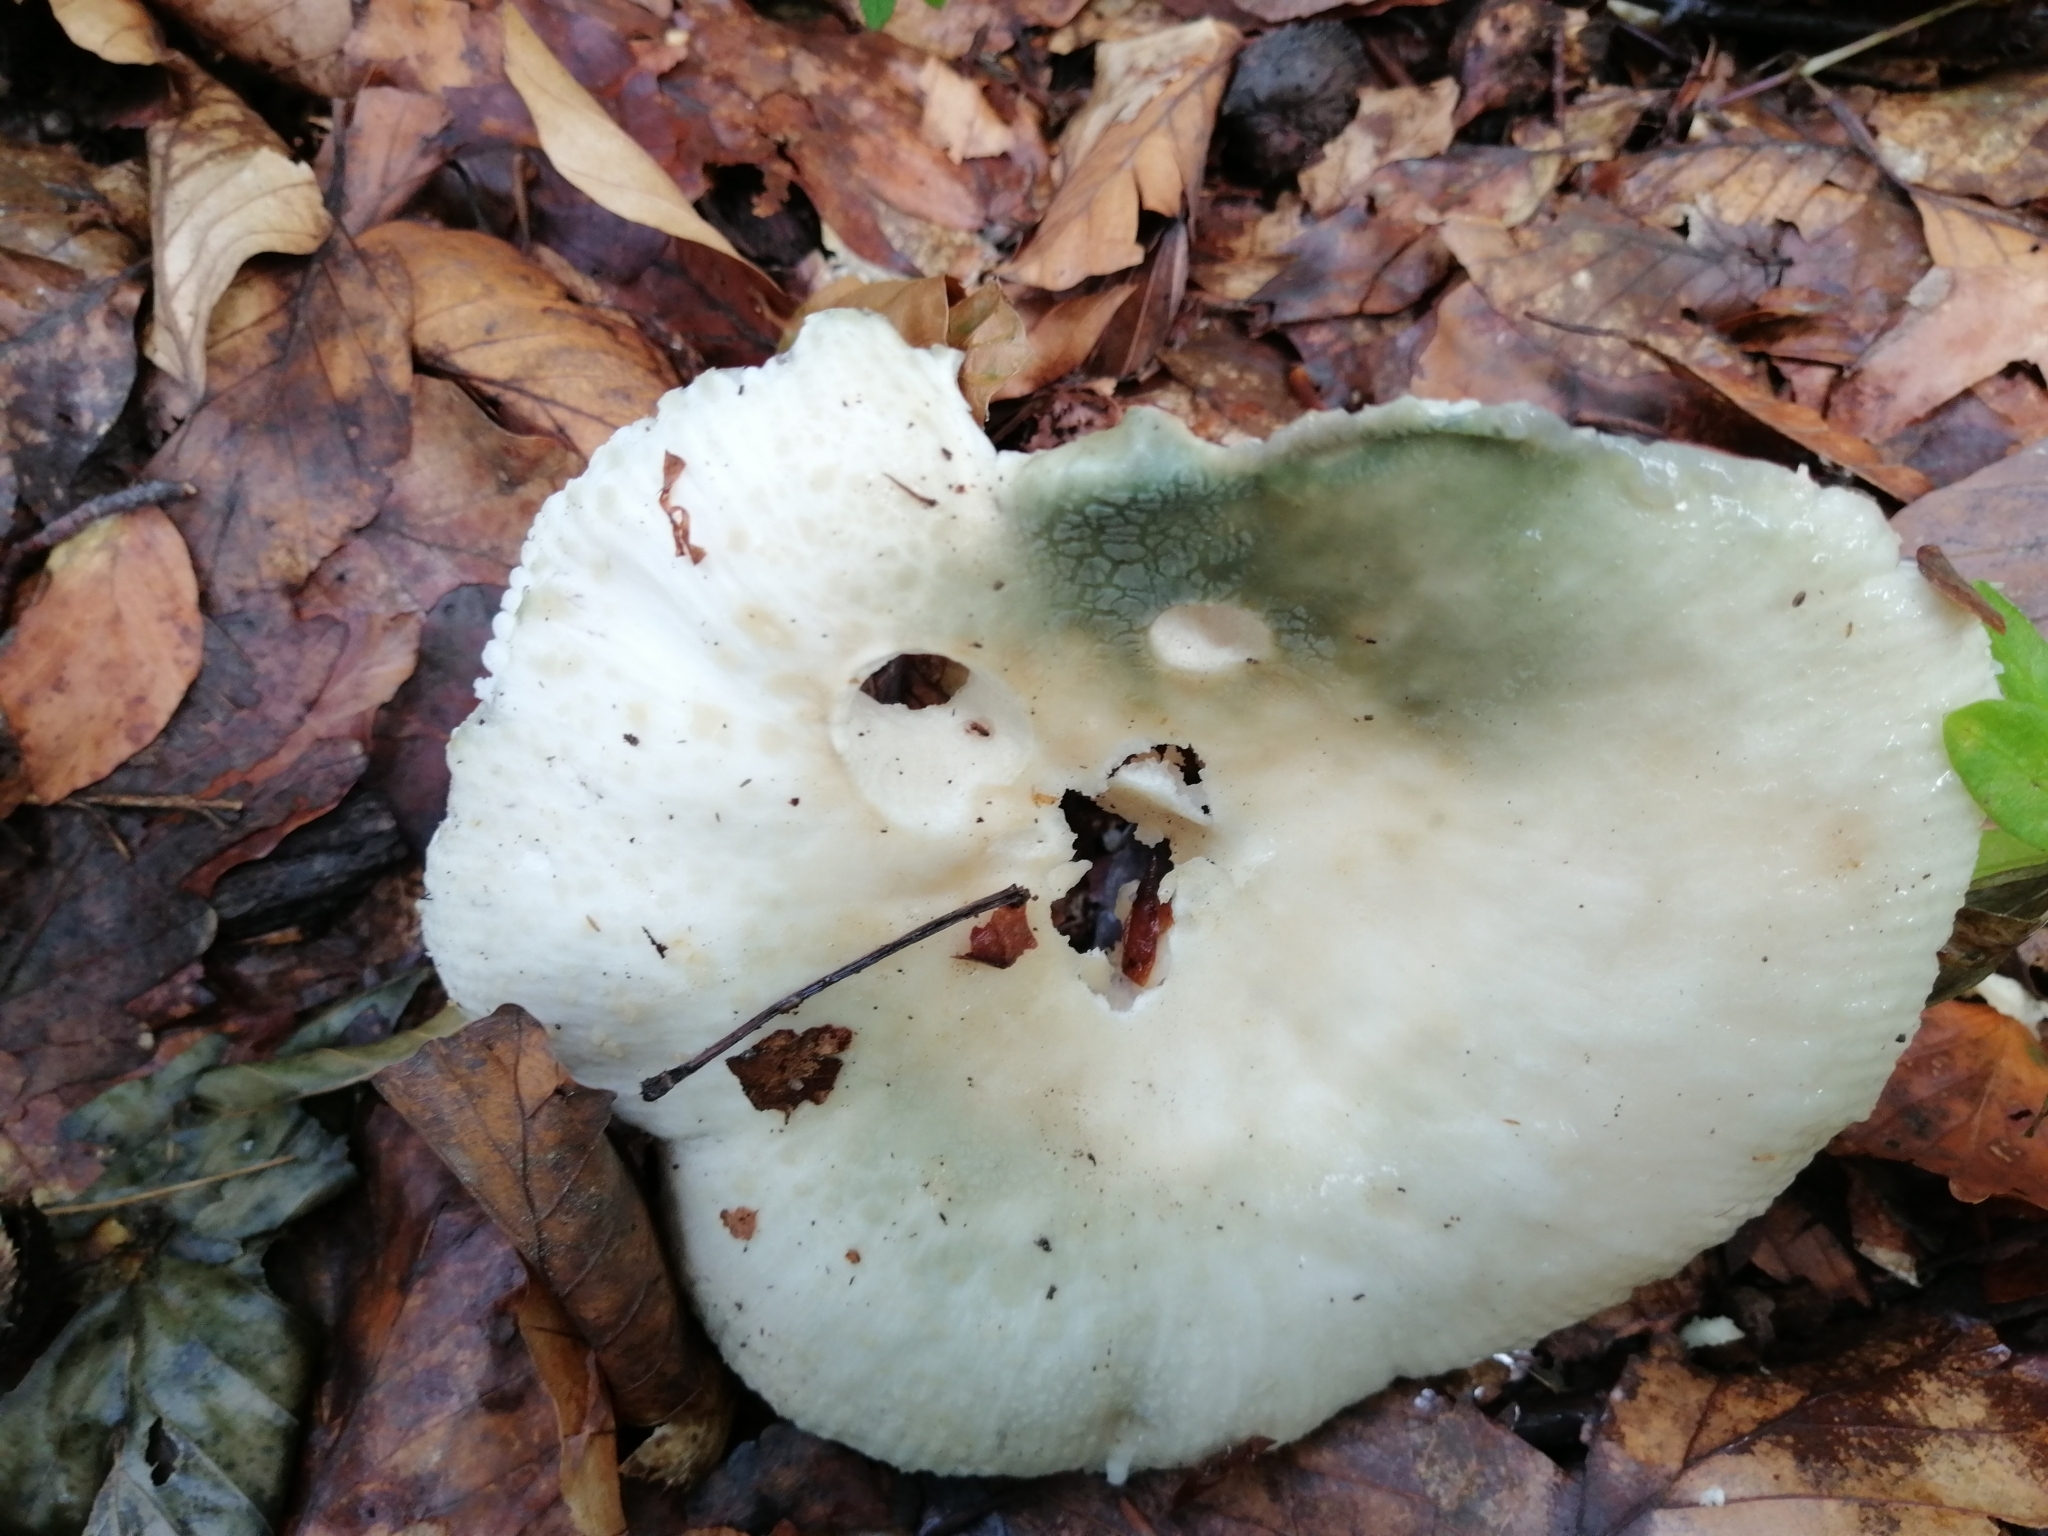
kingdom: Fungi
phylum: Basidiomycota
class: Agaricomycetes
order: Russulales
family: Russulaceae
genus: Russula
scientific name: Russula virescens
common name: Greencracked brittlegill
